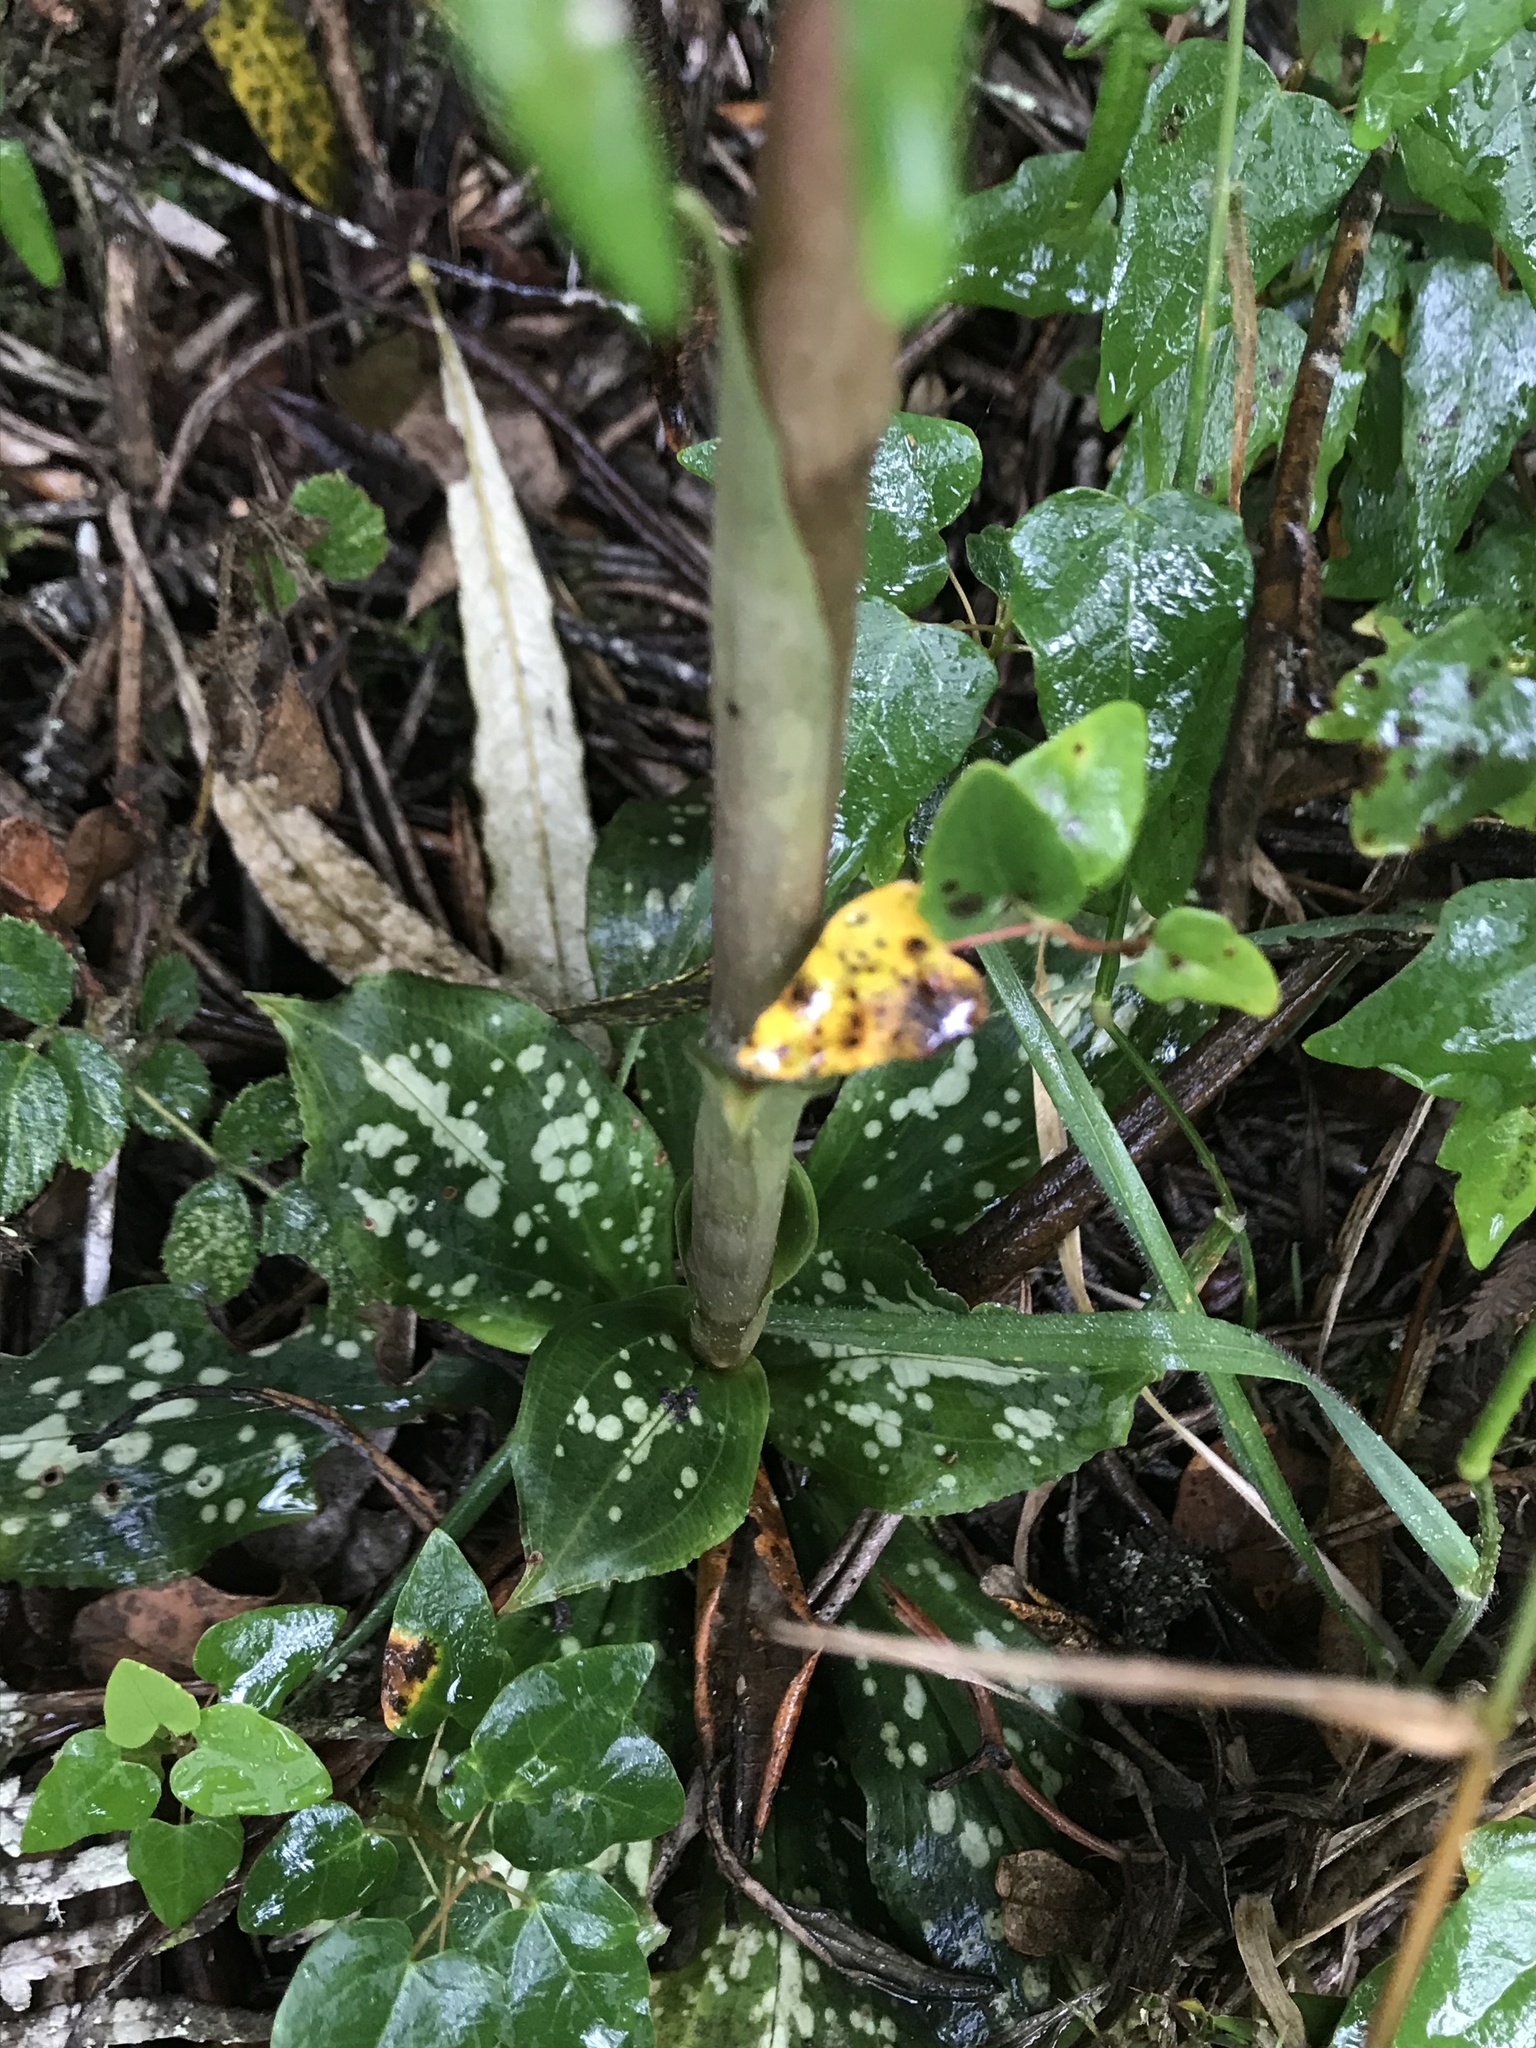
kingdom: Plantae
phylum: Tracheophyta
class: Liliopsida
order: Asparagales
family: Orchidaceae
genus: Stenorrhynchos
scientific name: Stenorrhynchos albidomaculatum
